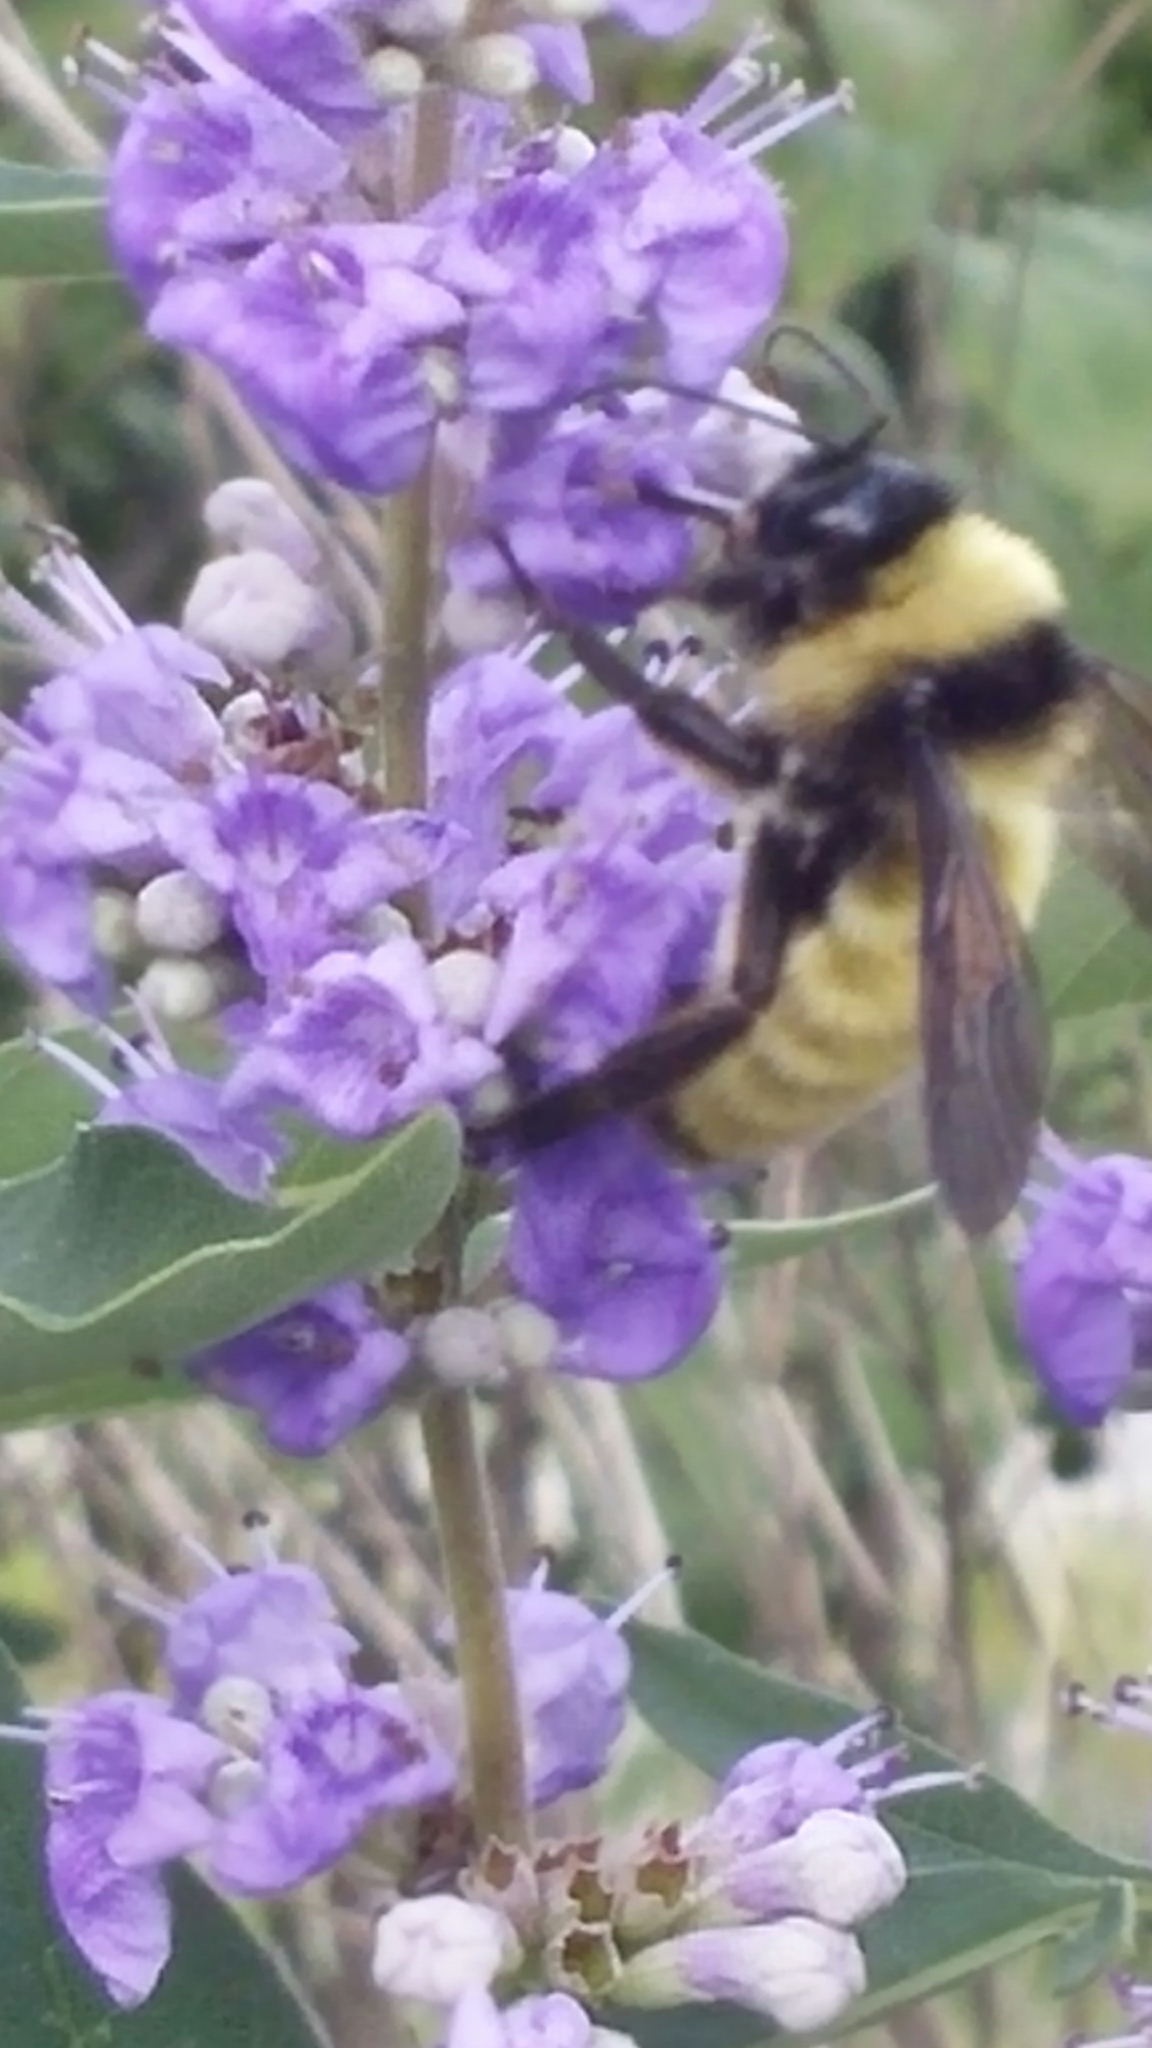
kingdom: Animalia
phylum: Arthropoda
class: Insecta
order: Hymenoptera
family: Apidae
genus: Bombus
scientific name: Bombus pensylvanicus
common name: Bumble bee
